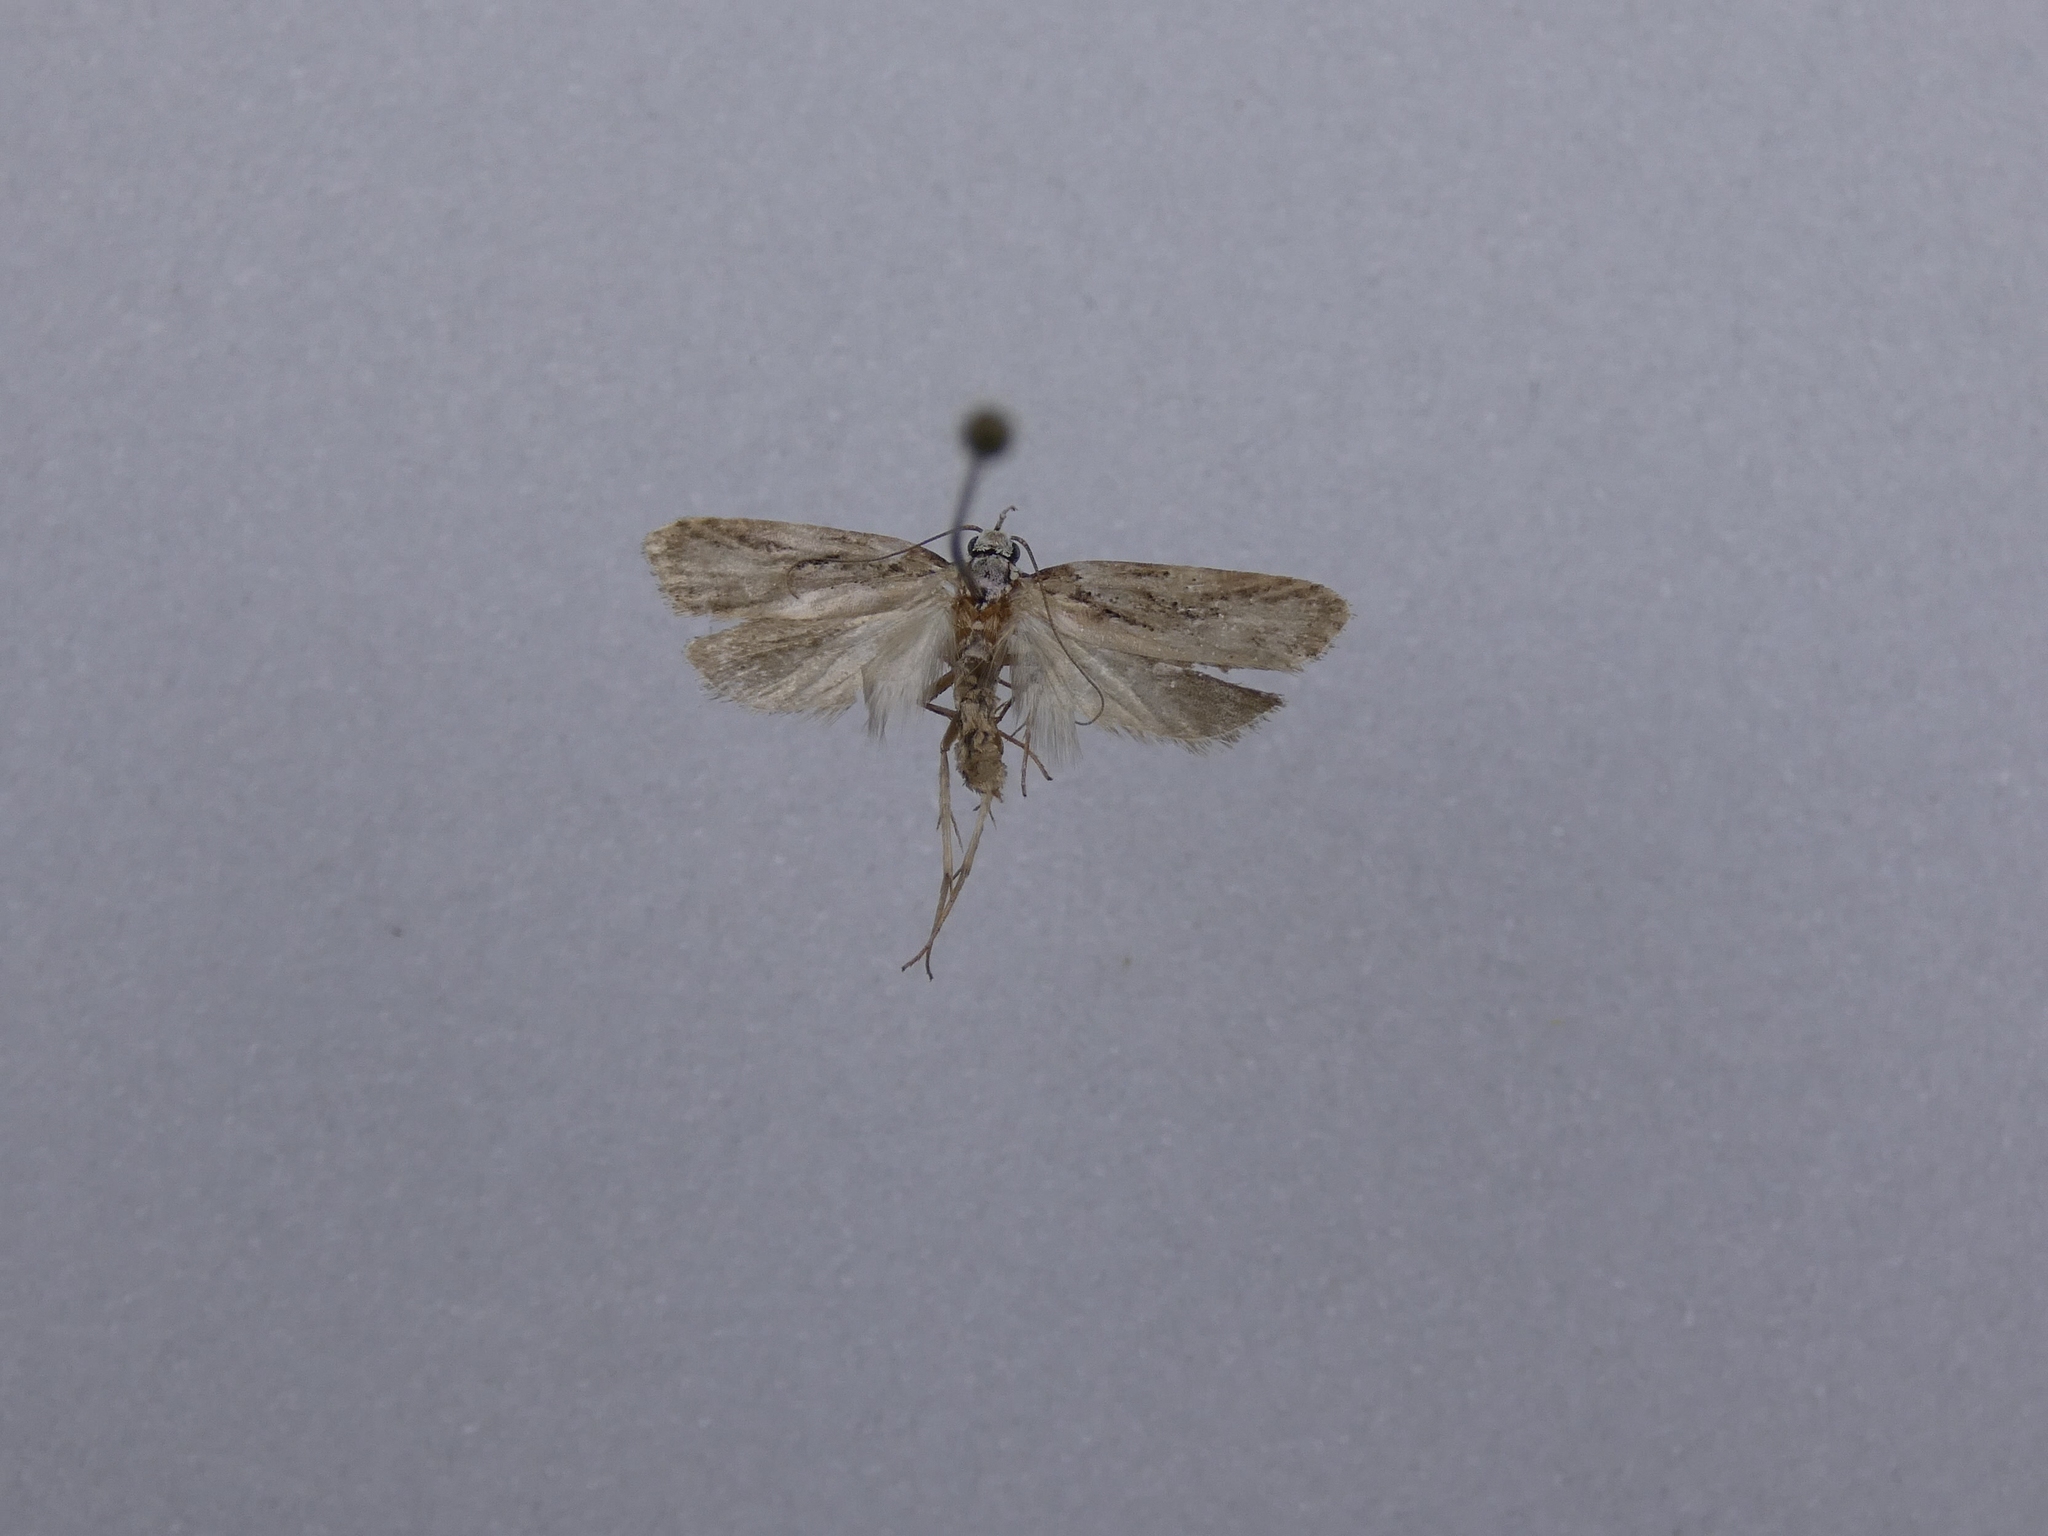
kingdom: Animalia
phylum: Arthropoda
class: Insecta
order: Lepidoptera
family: Oecophoridae
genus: Izatha
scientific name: Izatha mesoschista
